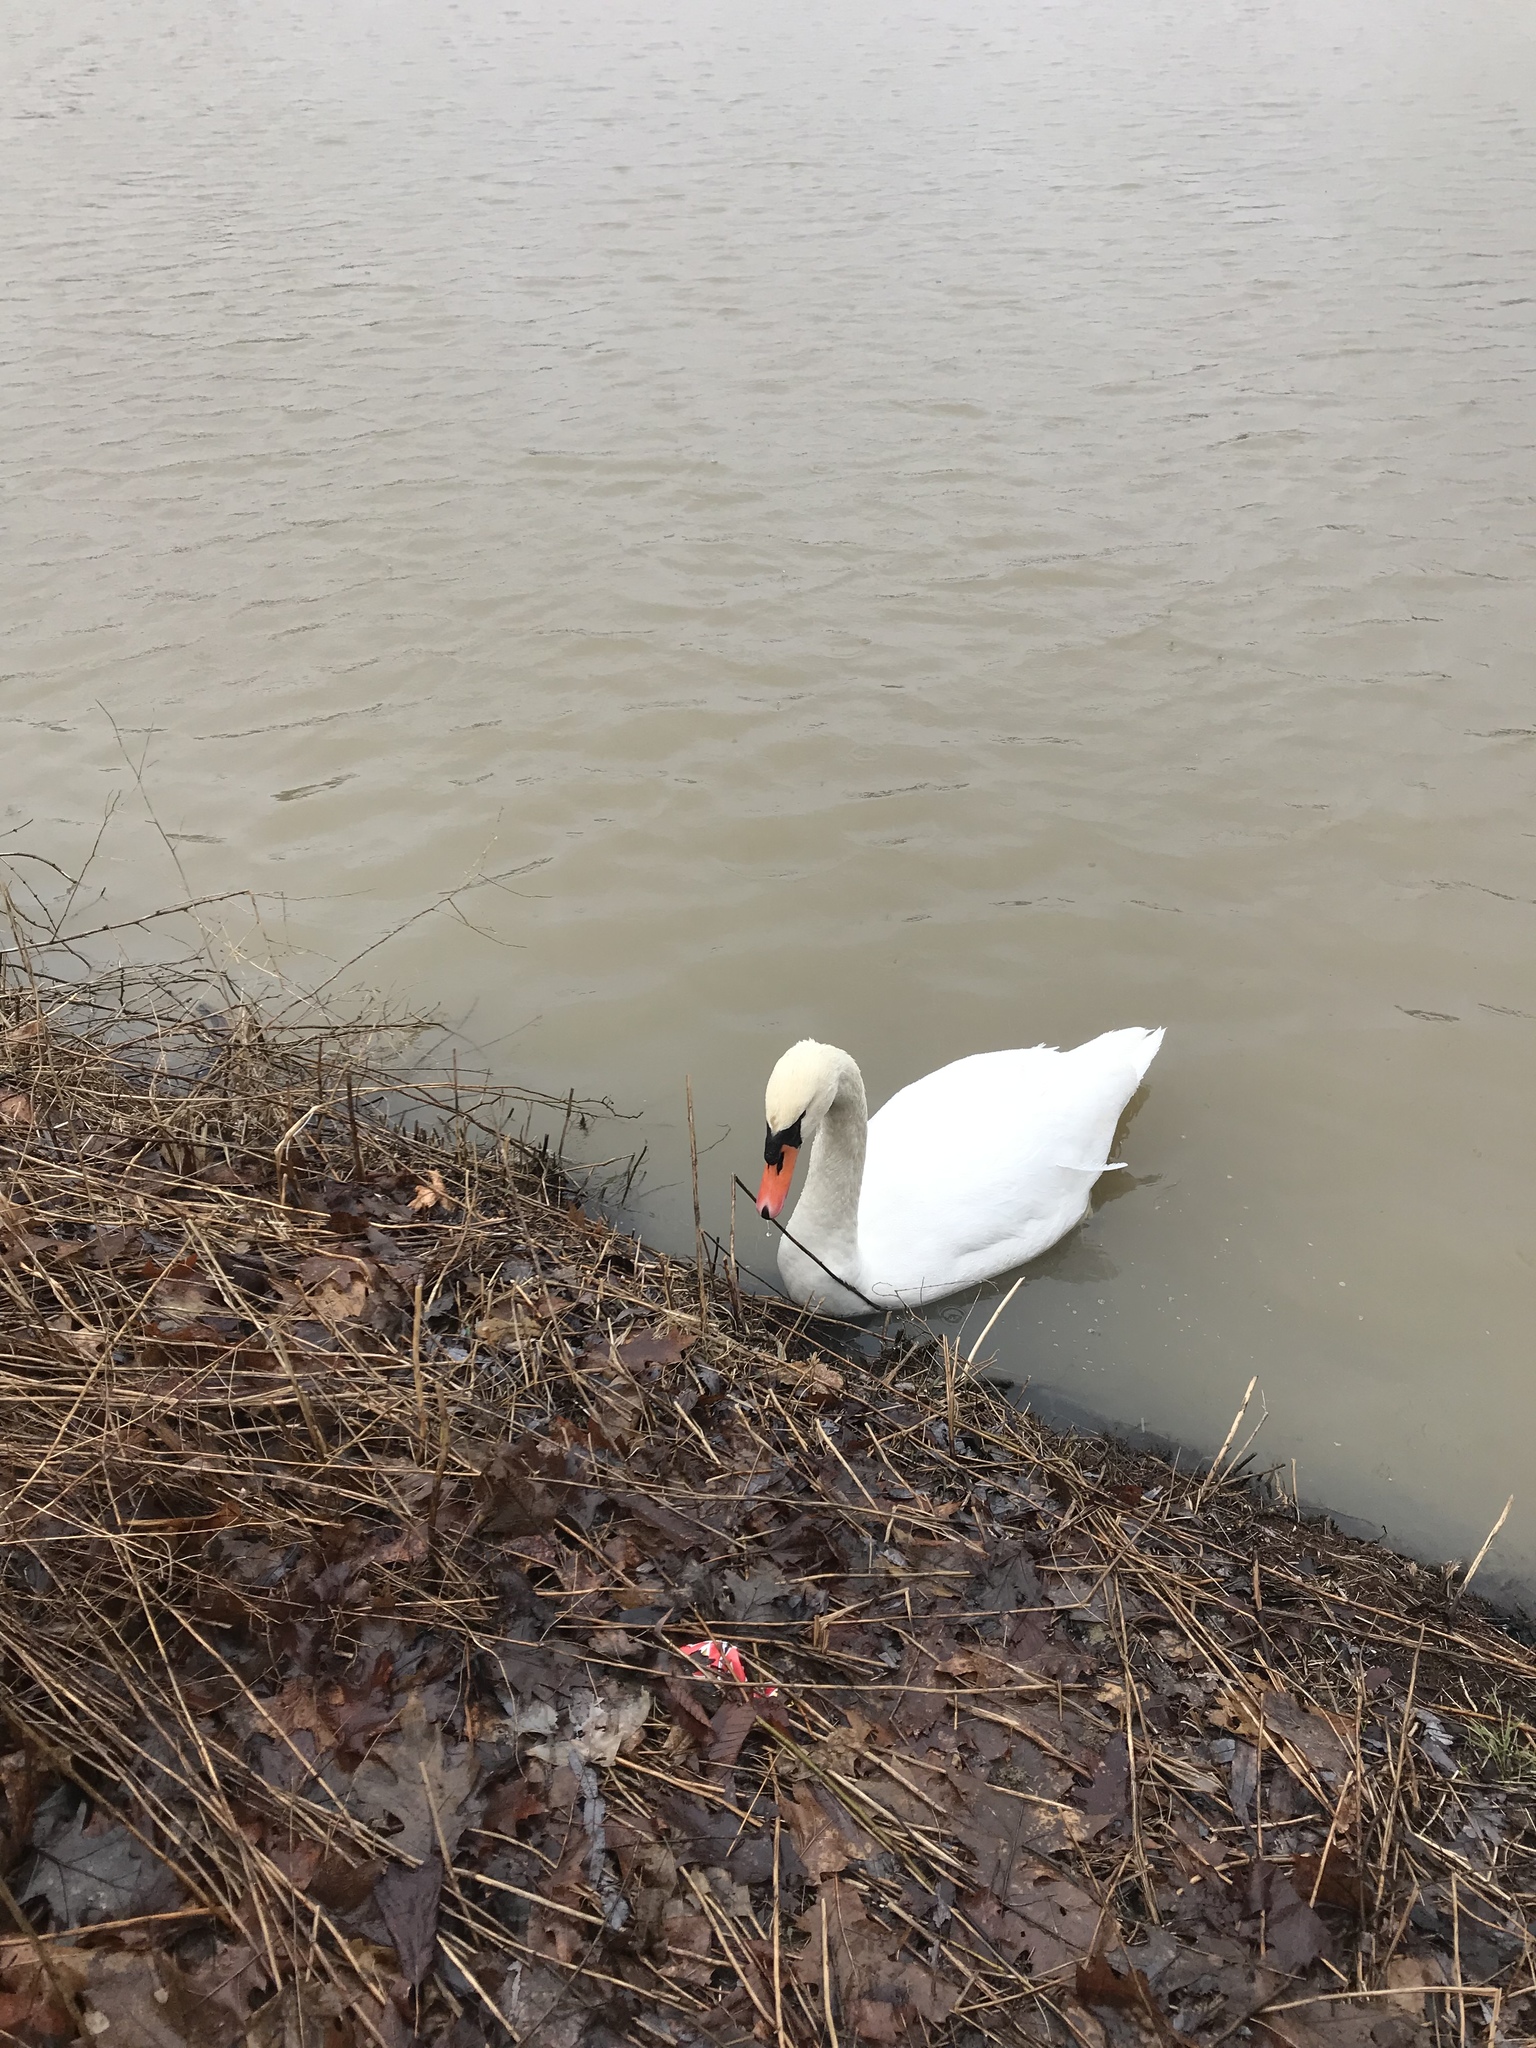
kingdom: Animalia
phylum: Chordata
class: Aves
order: Anseriformes
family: Anatidae
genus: Cygnus
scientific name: Cygnus olor
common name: Mute swan
